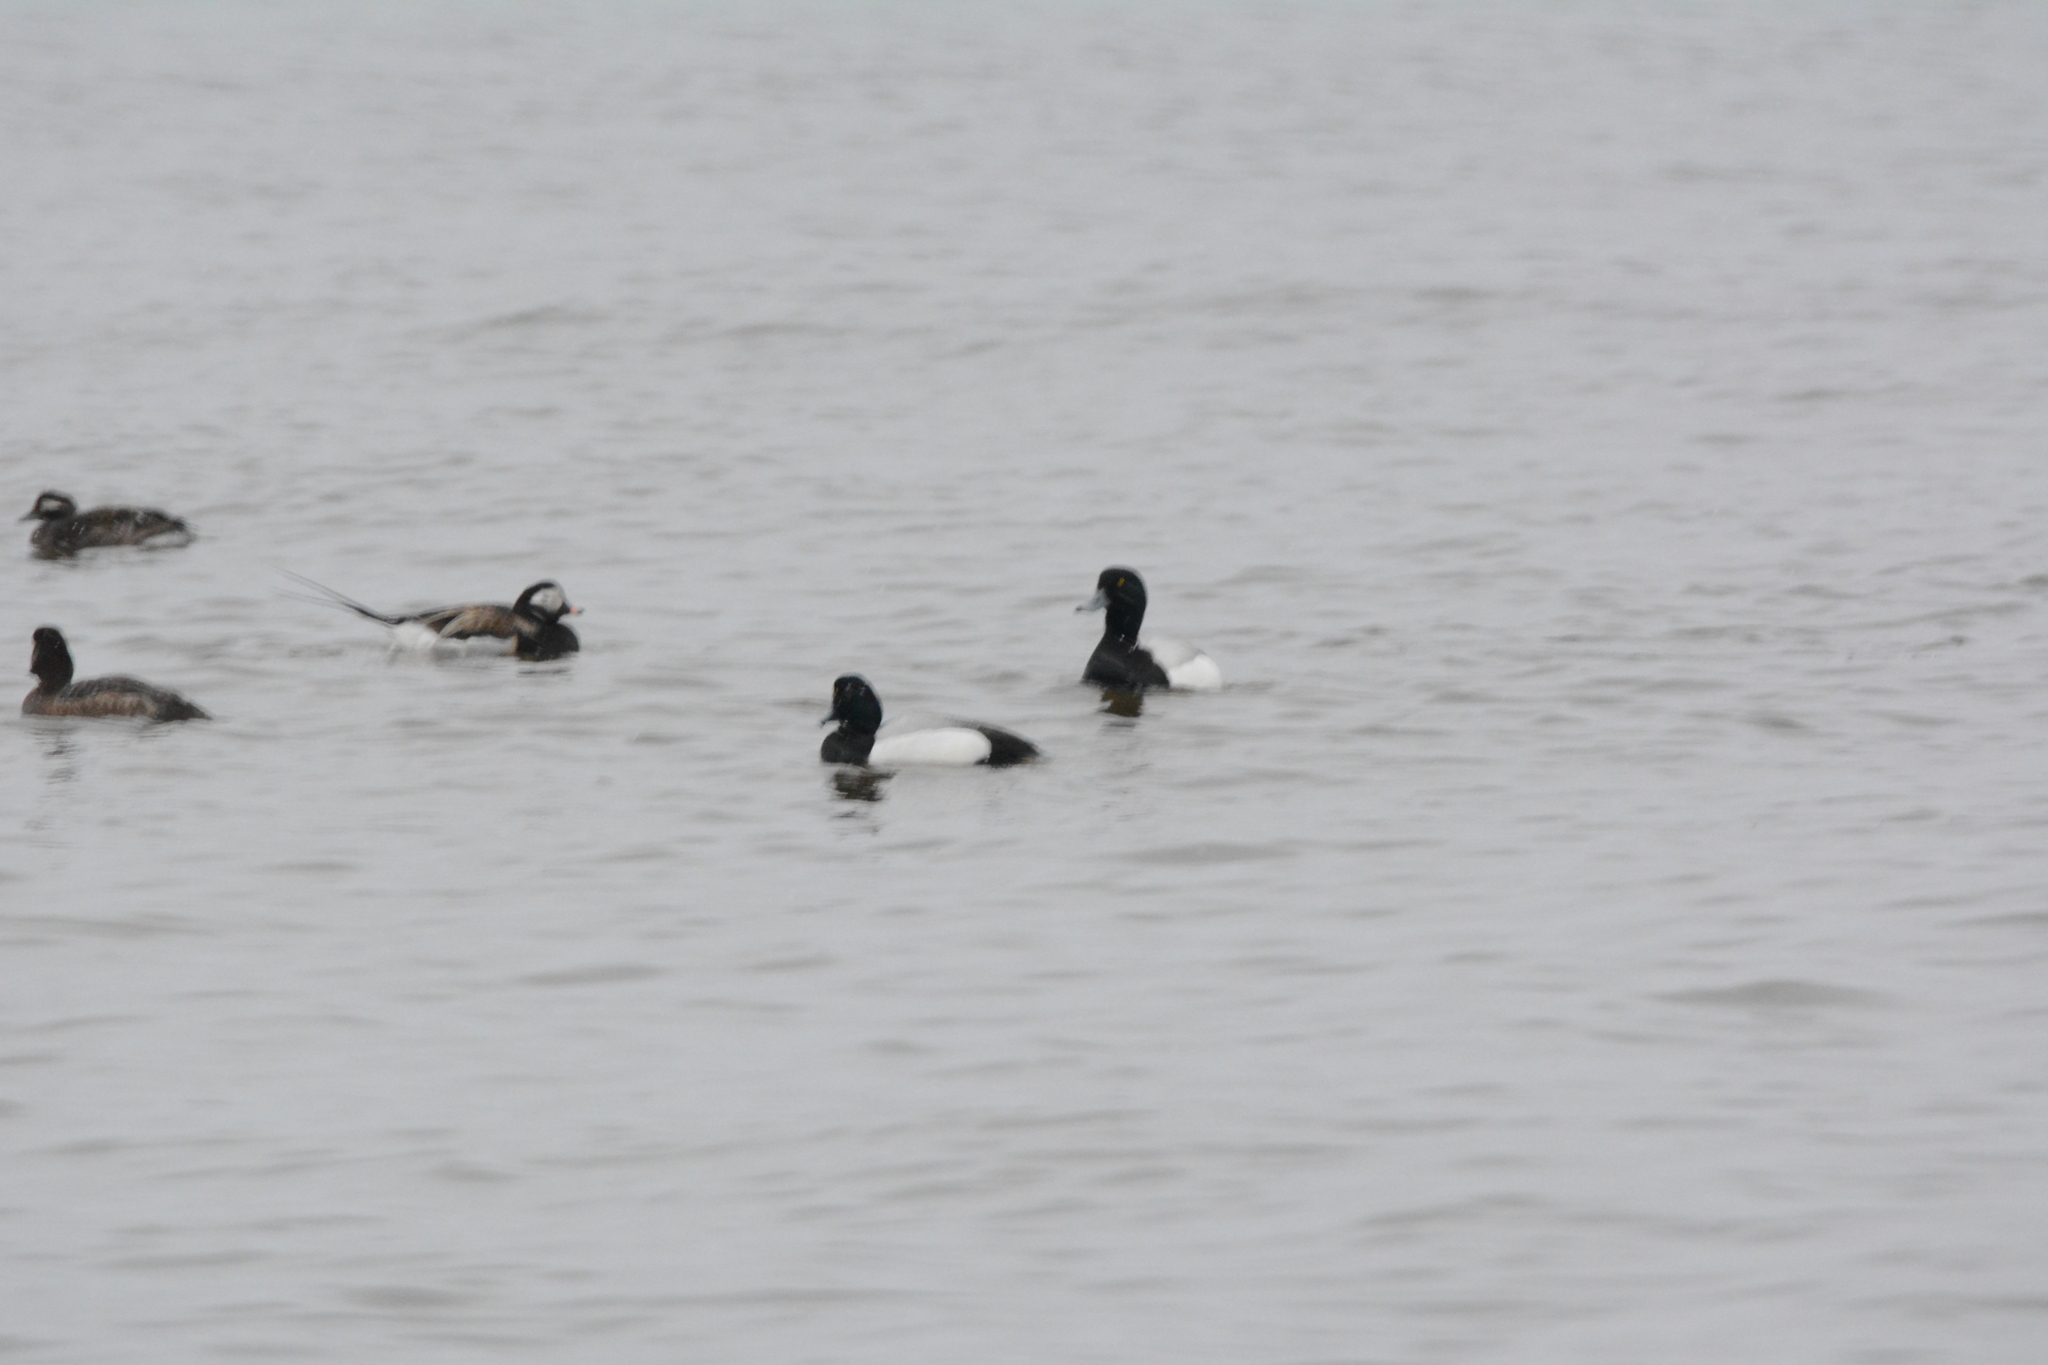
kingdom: Animalia
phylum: Chordata
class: Aves
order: Anseriformes
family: Anatidae
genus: Aythya
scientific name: Aythya marila
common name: Greater scaup
